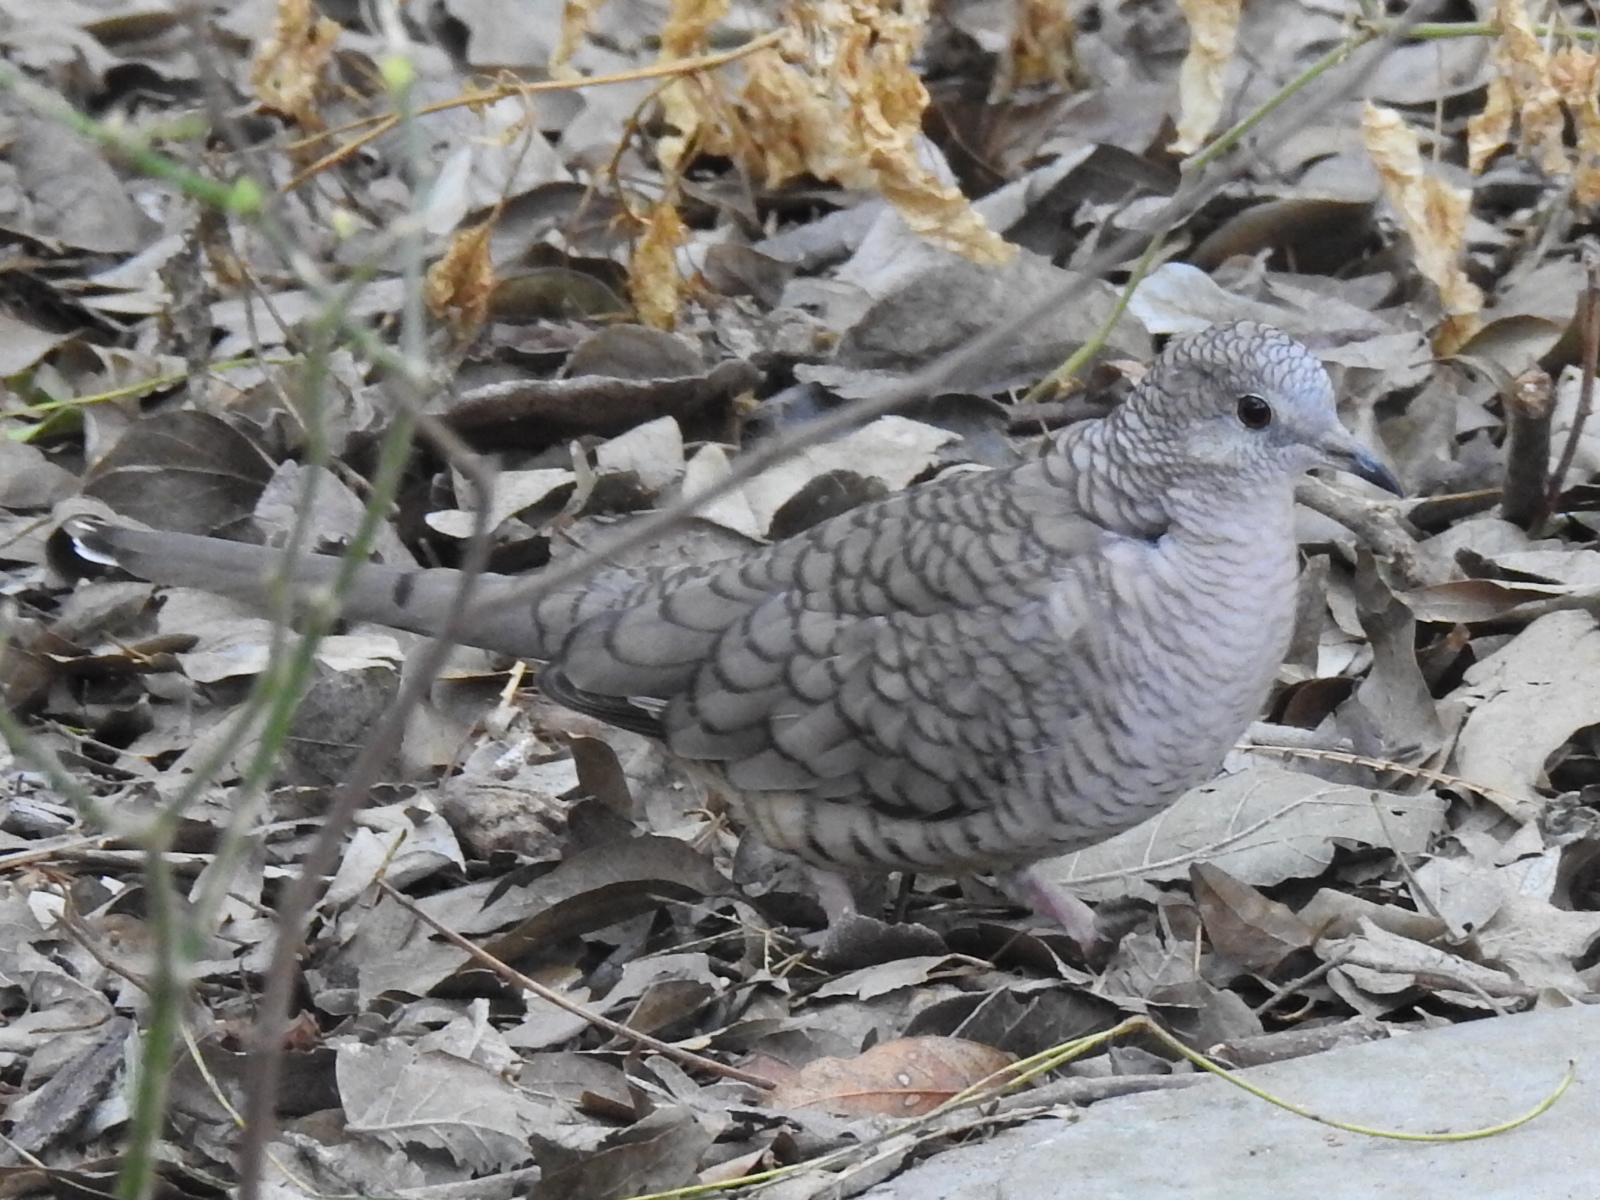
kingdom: Animalia
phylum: Chordata
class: Aves
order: Columbiformes
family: Columbidae
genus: Columbina
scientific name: Columbina inca
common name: Inca dove
